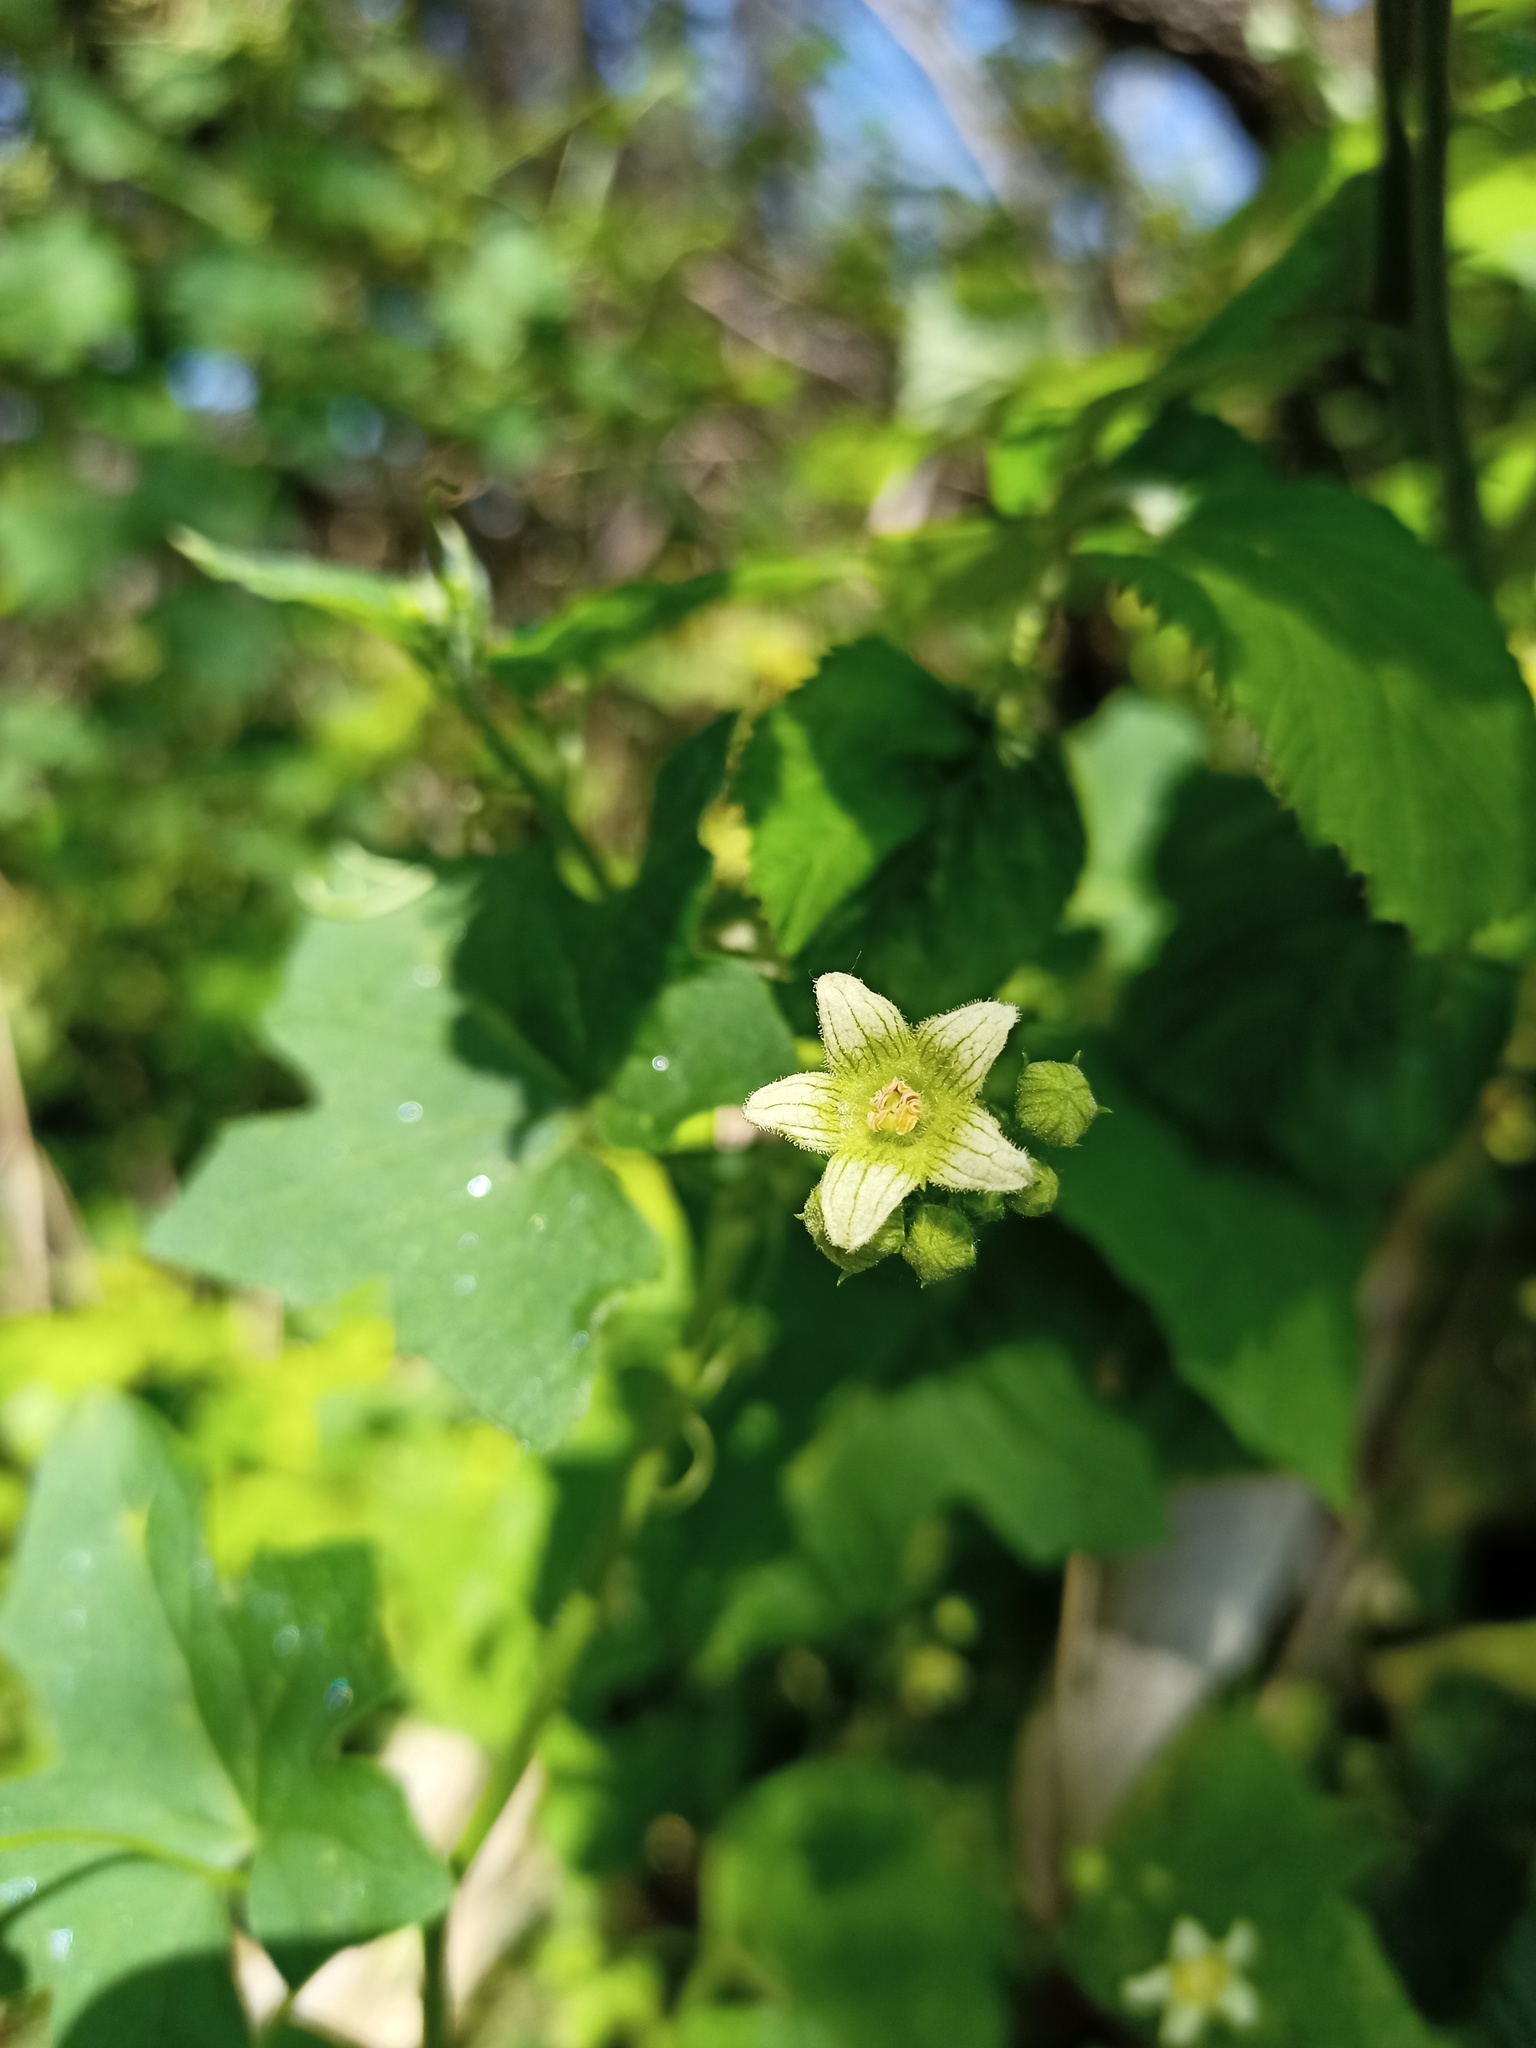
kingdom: Plantae
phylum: Tracheophyta
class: Magnoliopsida
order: Cucurbitales
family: Cucurbitaceae
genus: Bryonia
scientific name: Bryonia cretica
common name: Cretan bryony
